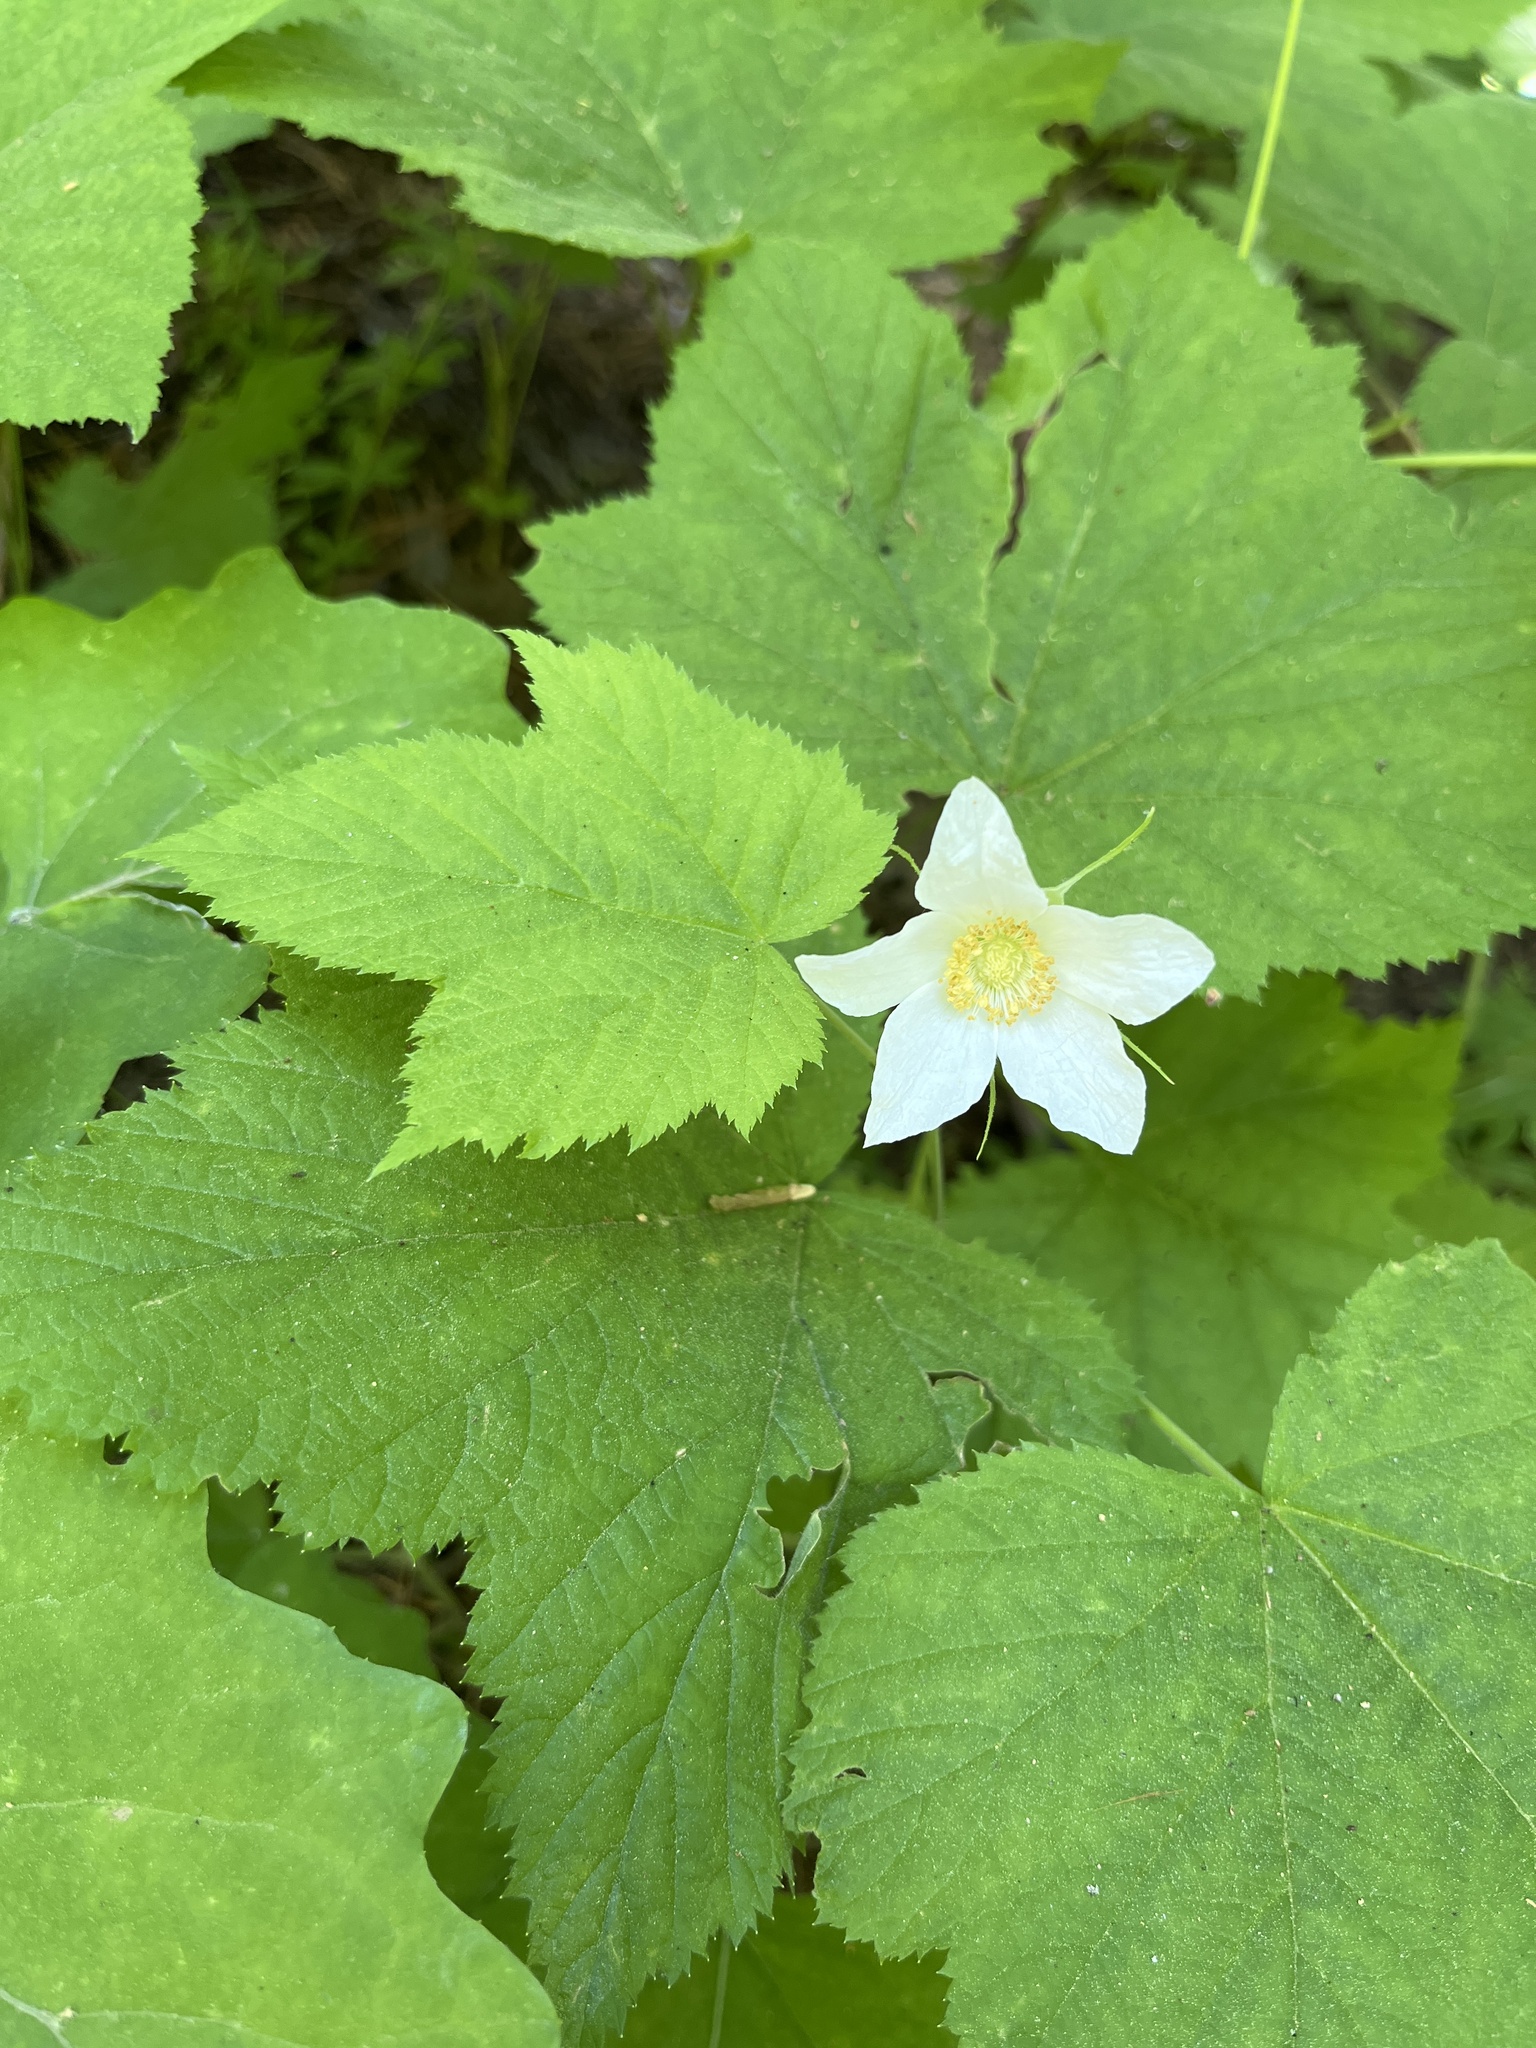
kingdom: Plantae
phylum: Tracheophyta
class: Magnoliopsida
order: Rosales
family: Rosaceae
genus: Rubus
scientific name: Rubus parviflorus
